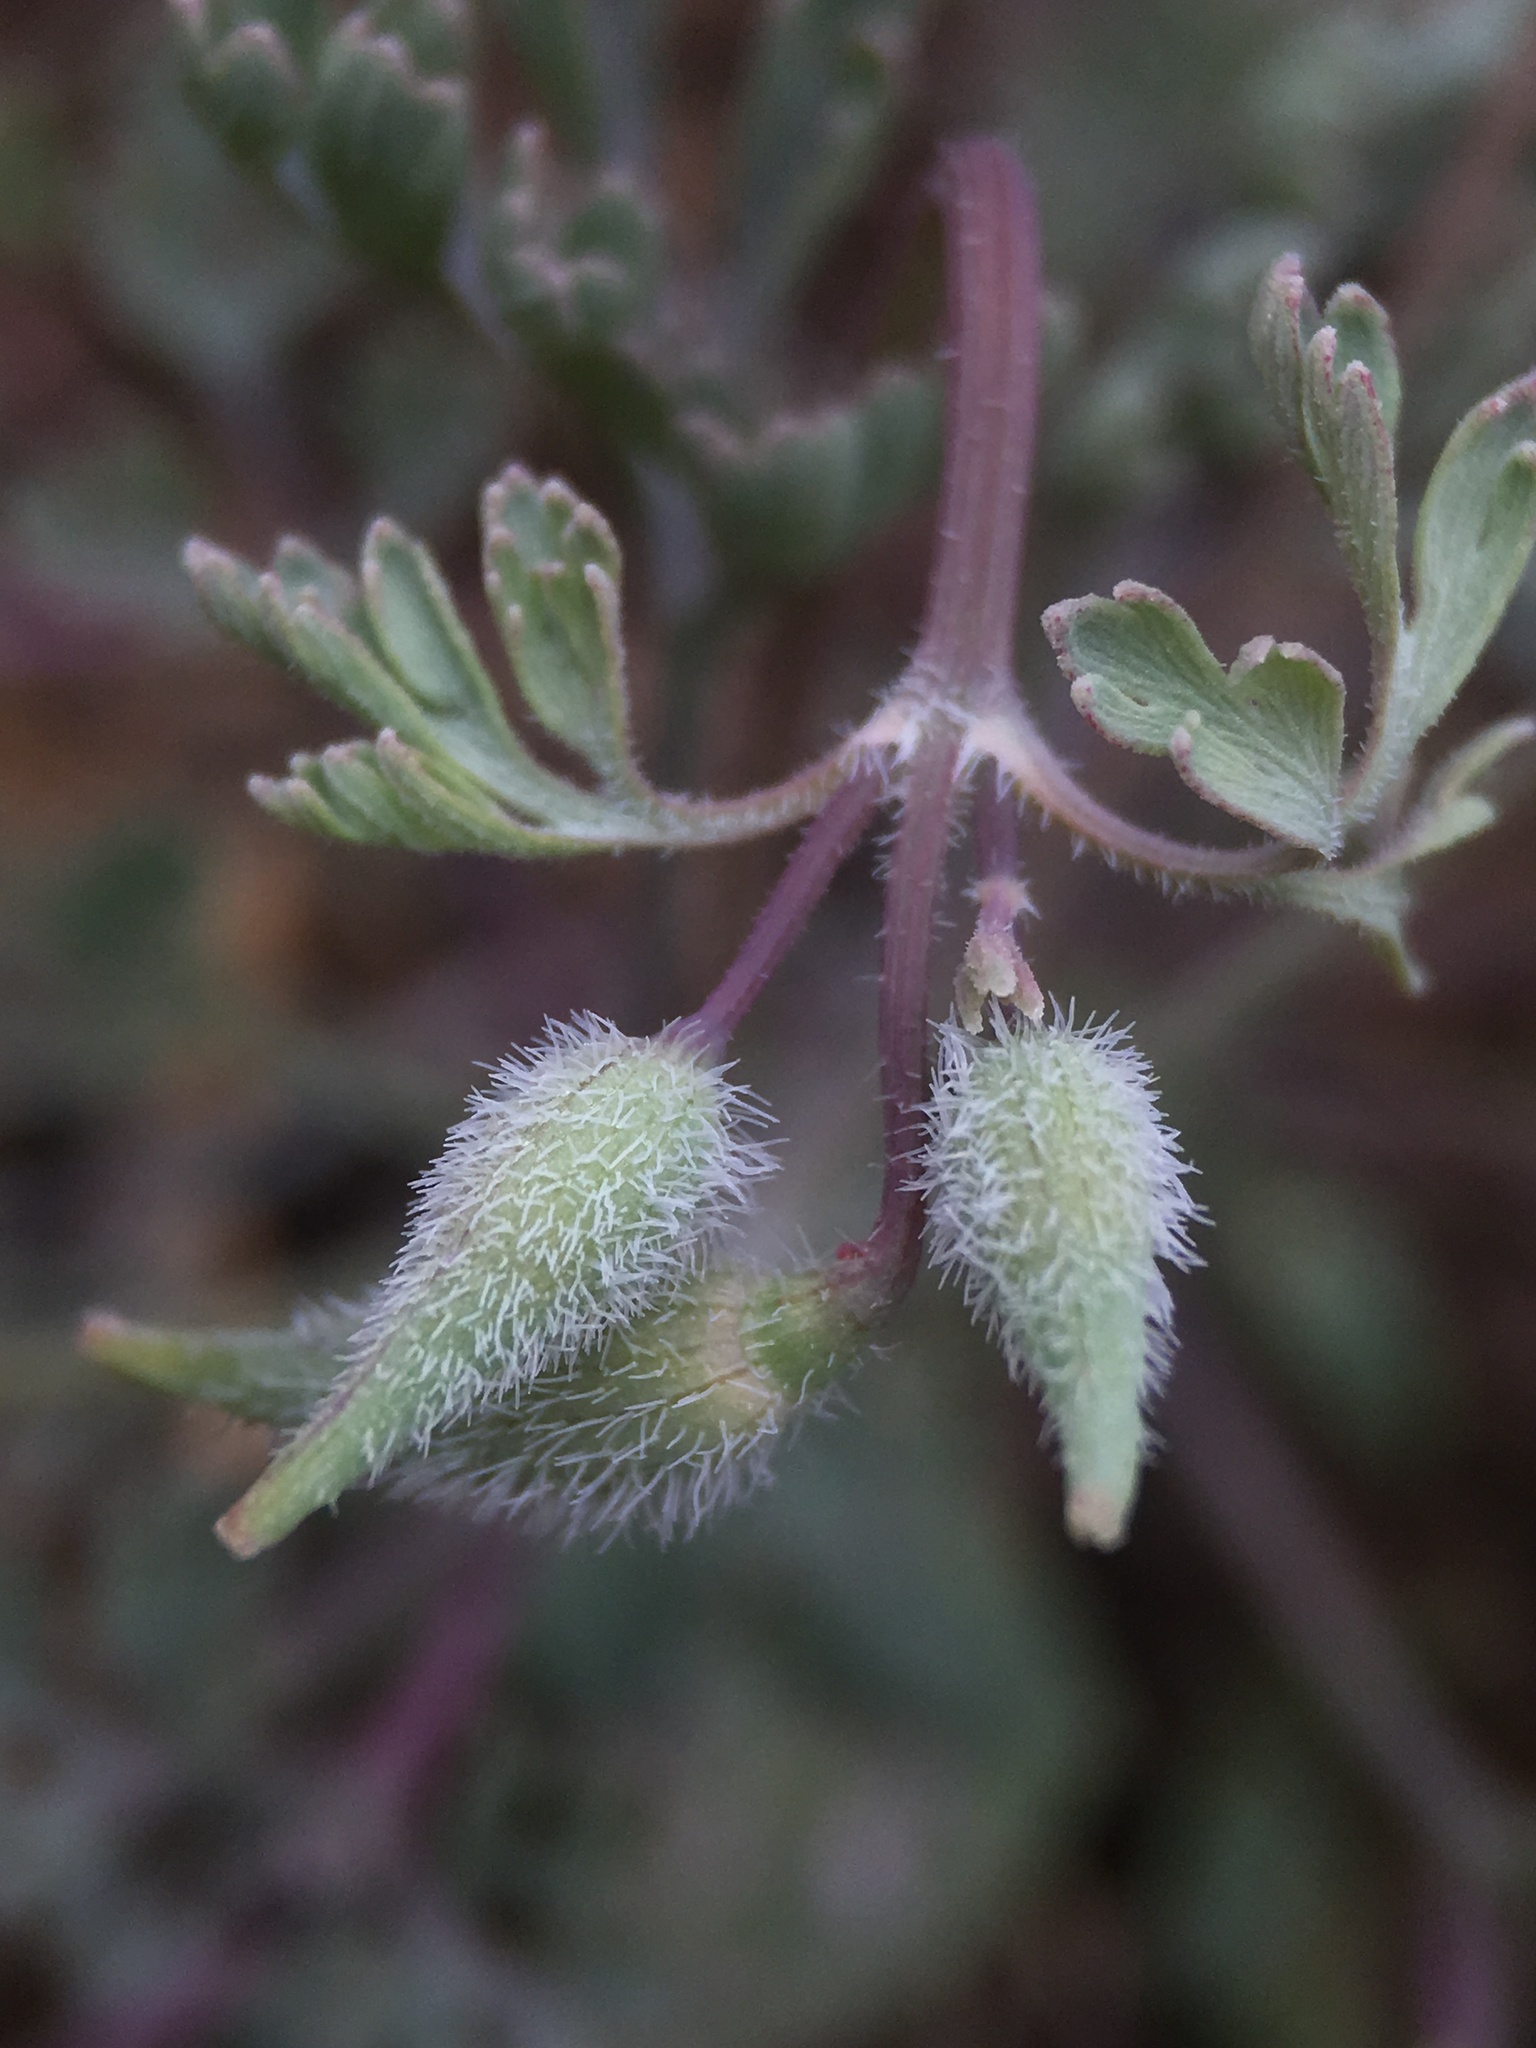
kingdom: Plantae
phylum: Tracheophyta
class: Magnoliopsida
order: Ranunculales
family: Papaveraceae
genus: Eschscholzia
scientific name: Eschscholzia hypecoides
